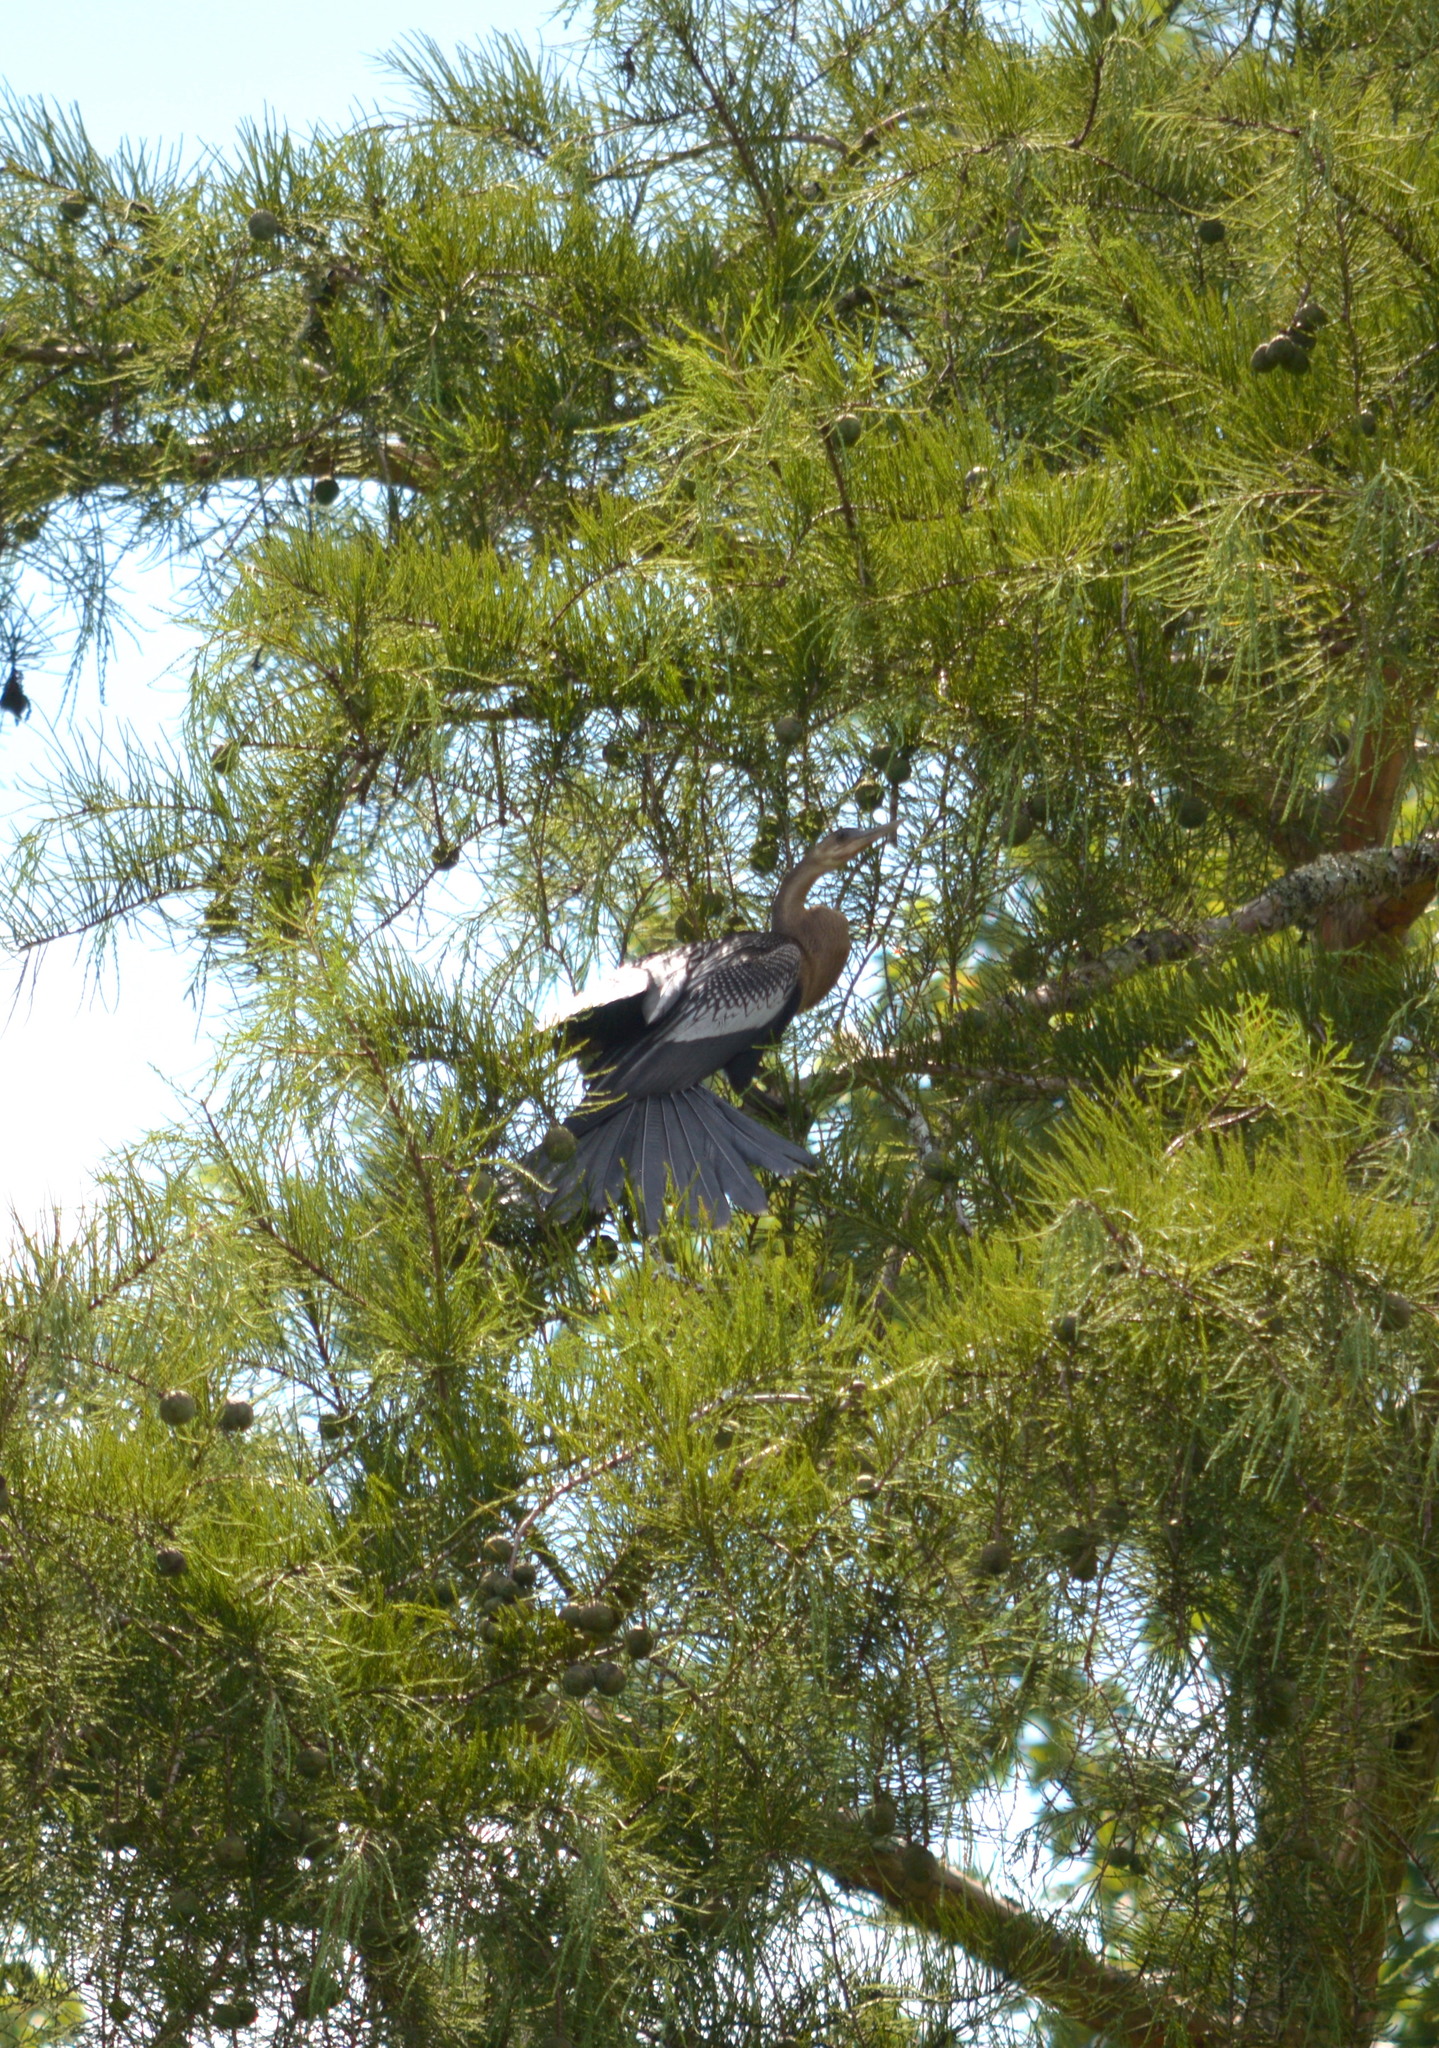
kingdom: Animalia
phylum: Chordata
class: Aves
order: Suliformes
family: Anhingidae
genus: Anhinga
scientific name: Anhinga anhinga
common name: Anhinga
